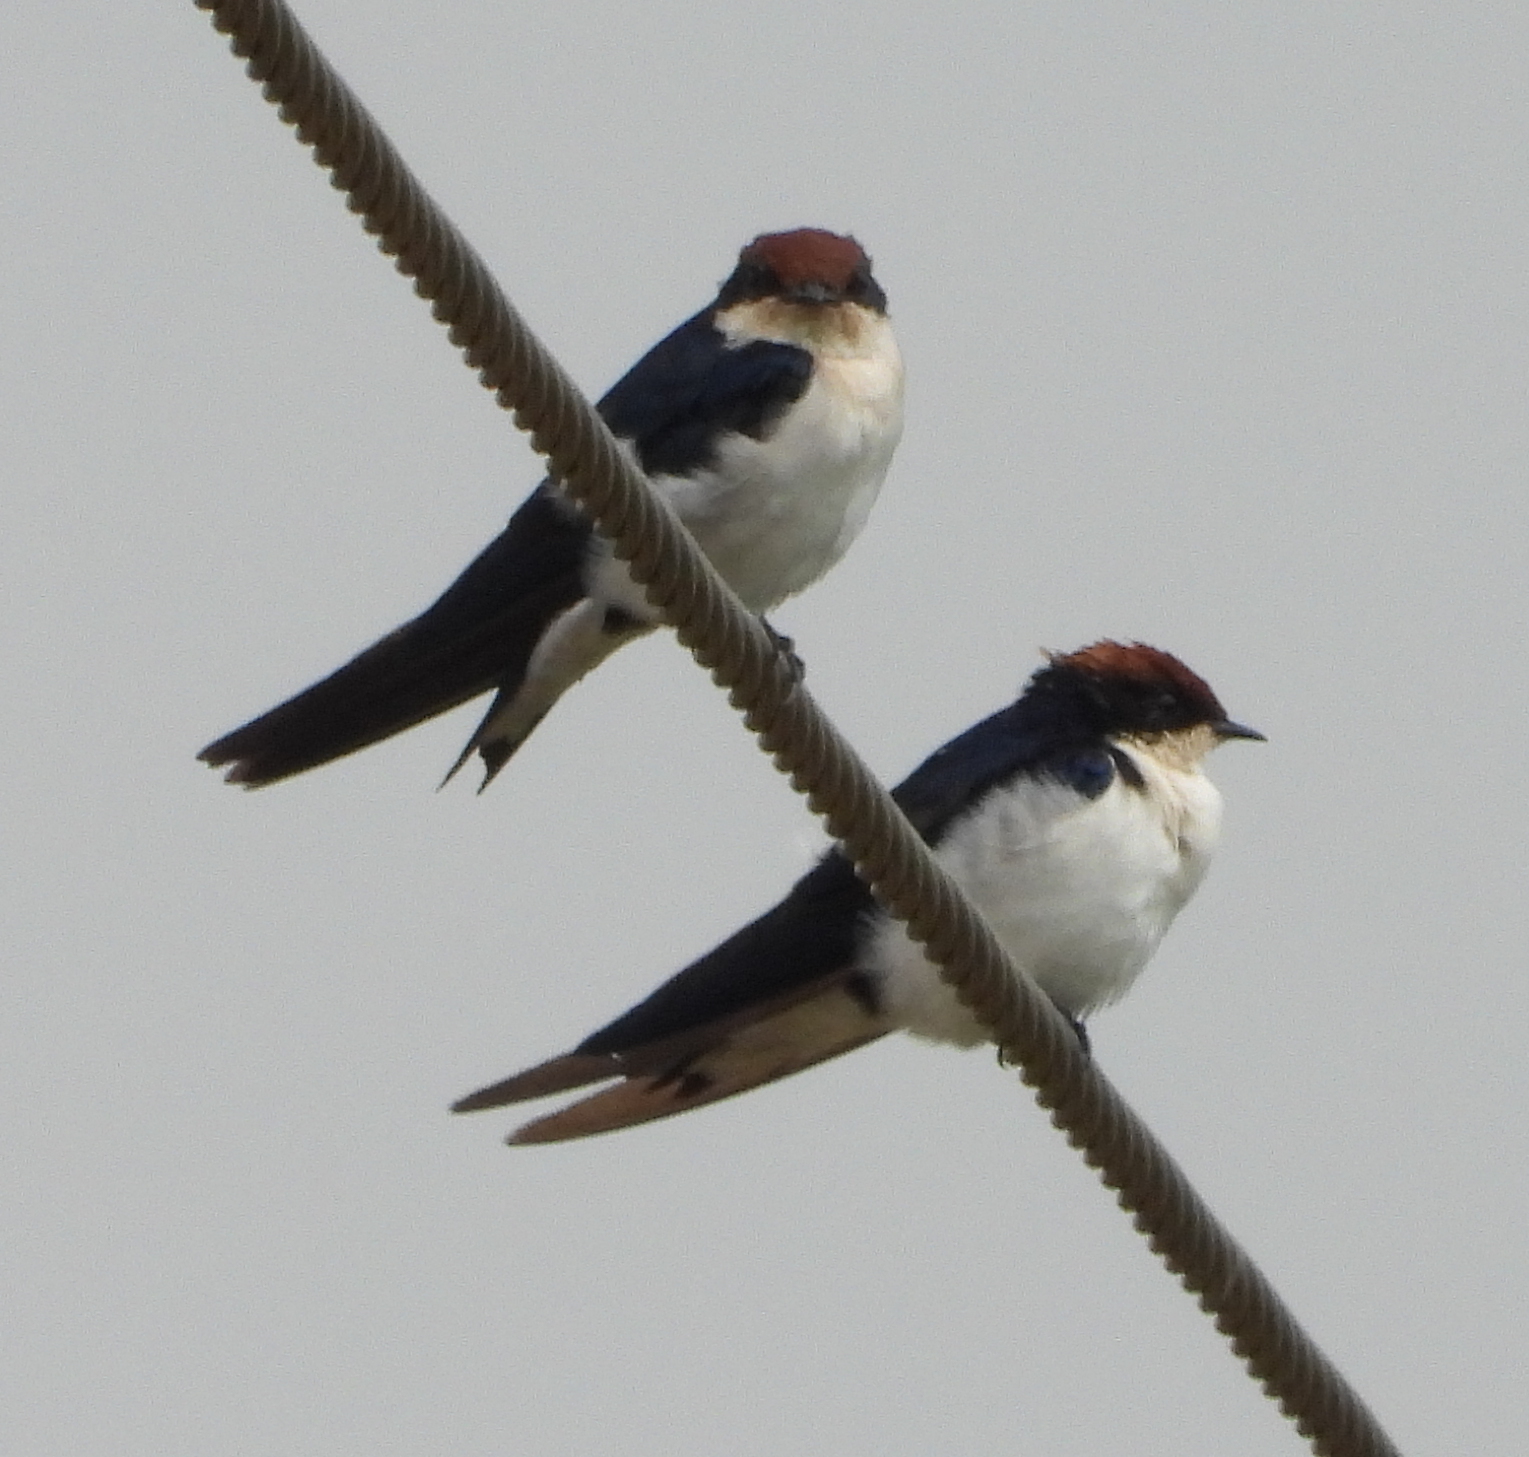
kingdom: Animalia
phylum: Chordata
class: Aves
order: Passeriformes
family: Hirundinidae
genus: Hirundo
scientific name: Hirundo smithii
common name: Wire-tailed swallow
